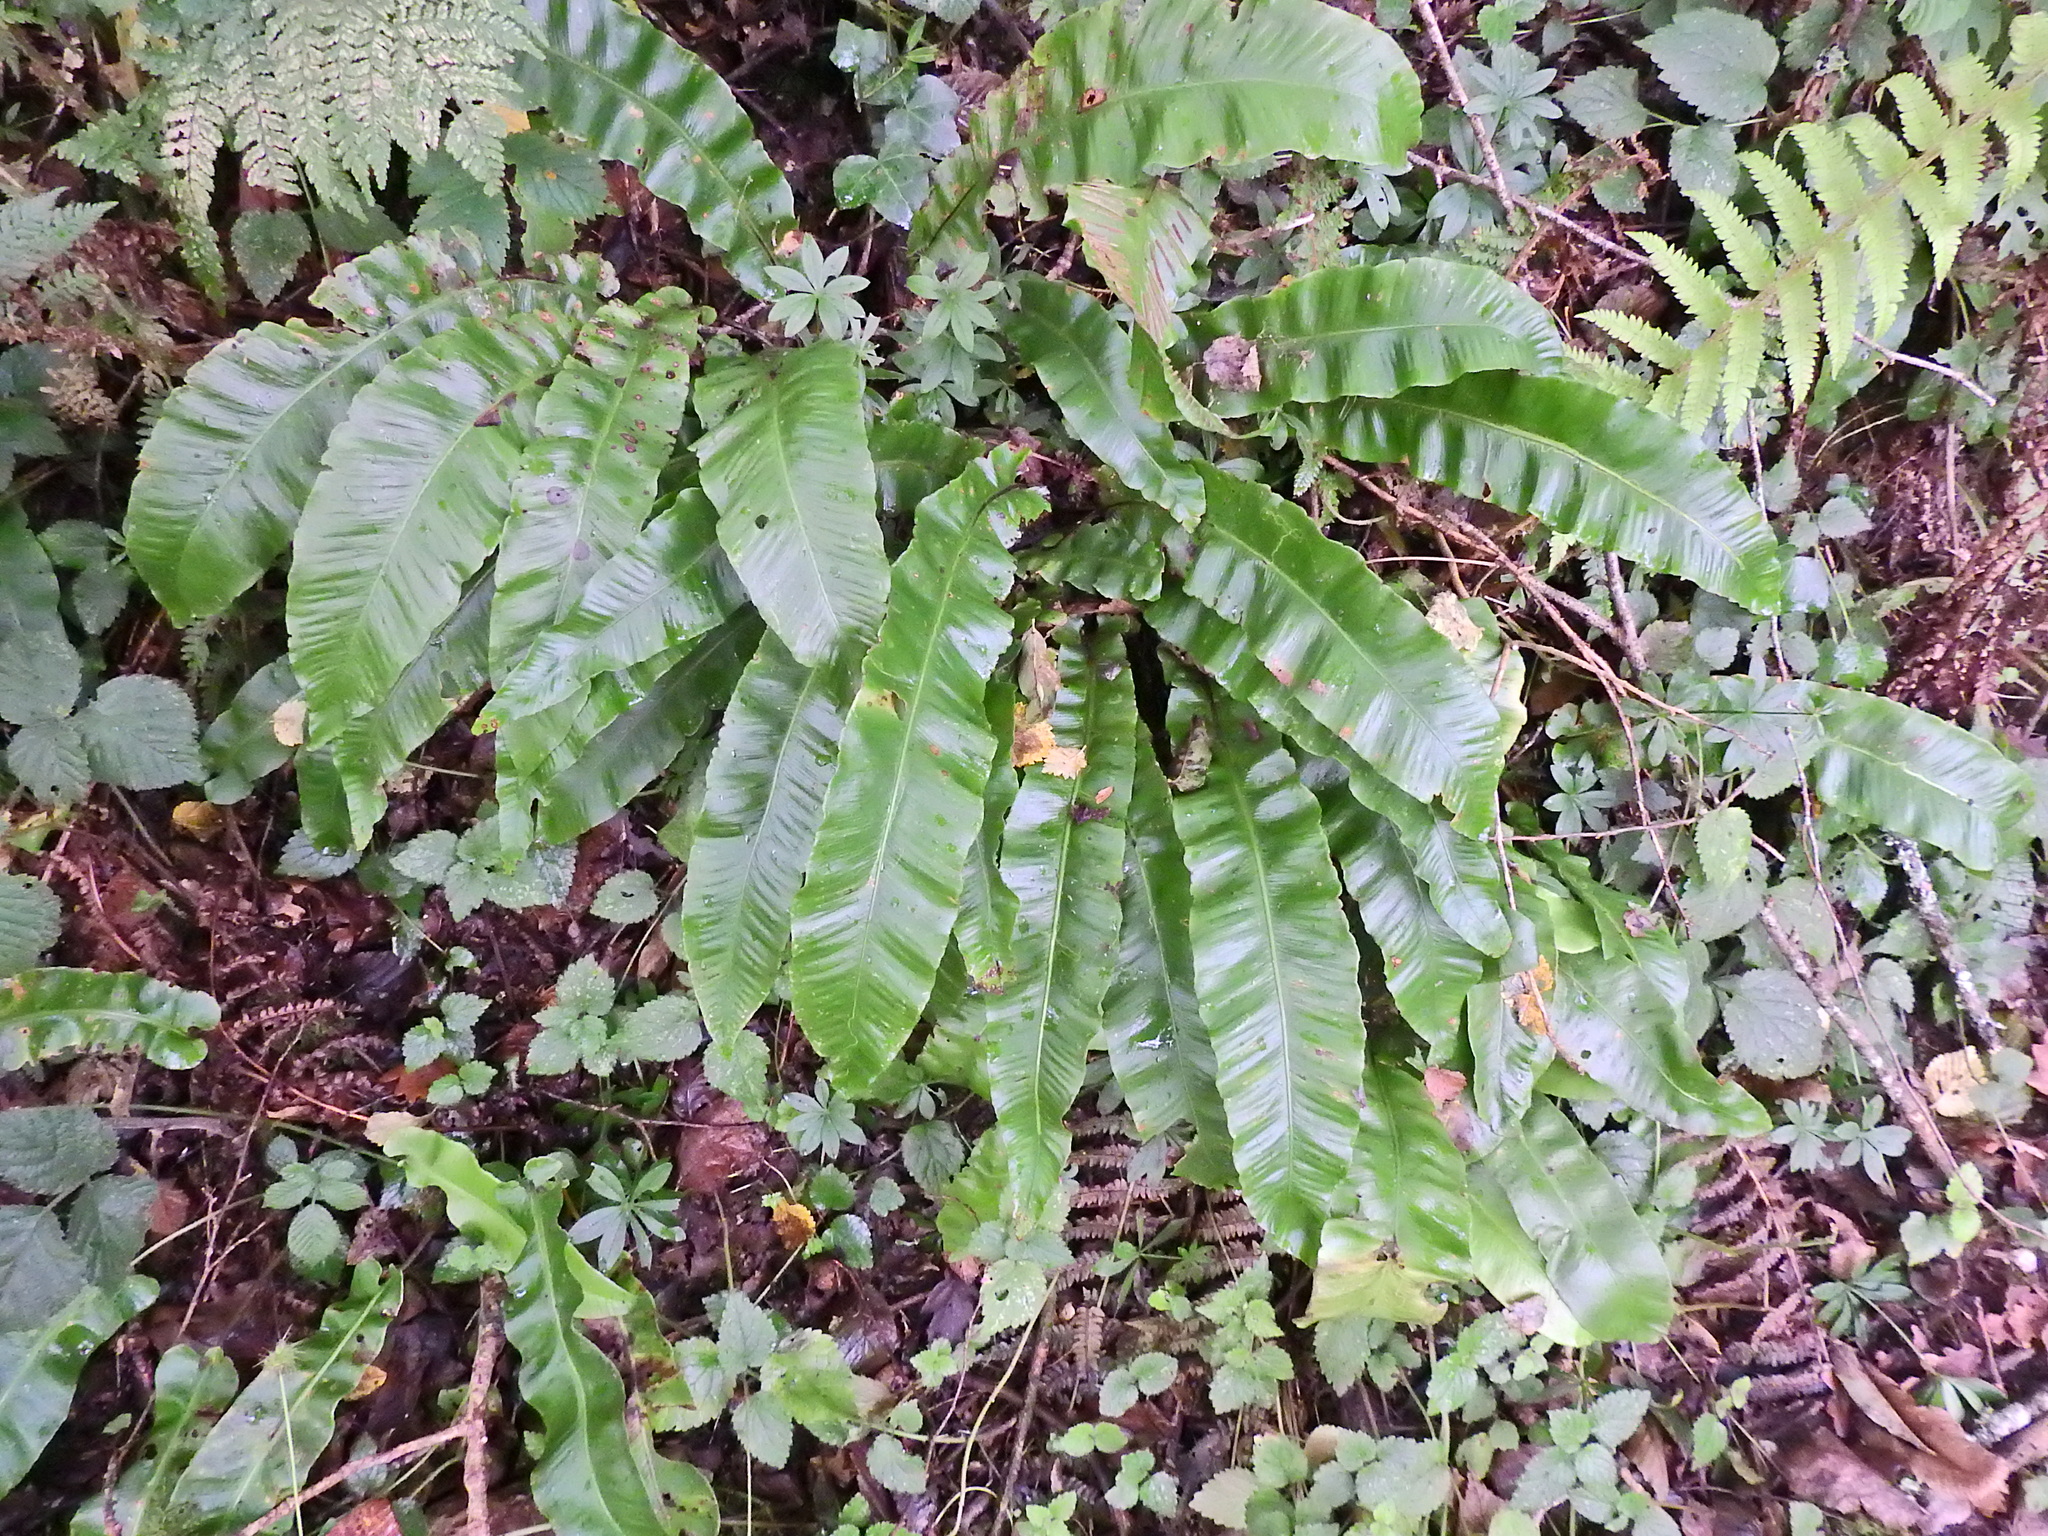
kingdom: Plantae
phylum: Tracheophyta
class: Polypodiopsida
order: Polypodiales
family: Aspleniaceae
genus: Asplenium
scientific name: Asplenium scolopendrium
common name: Hart's-tongue fern
